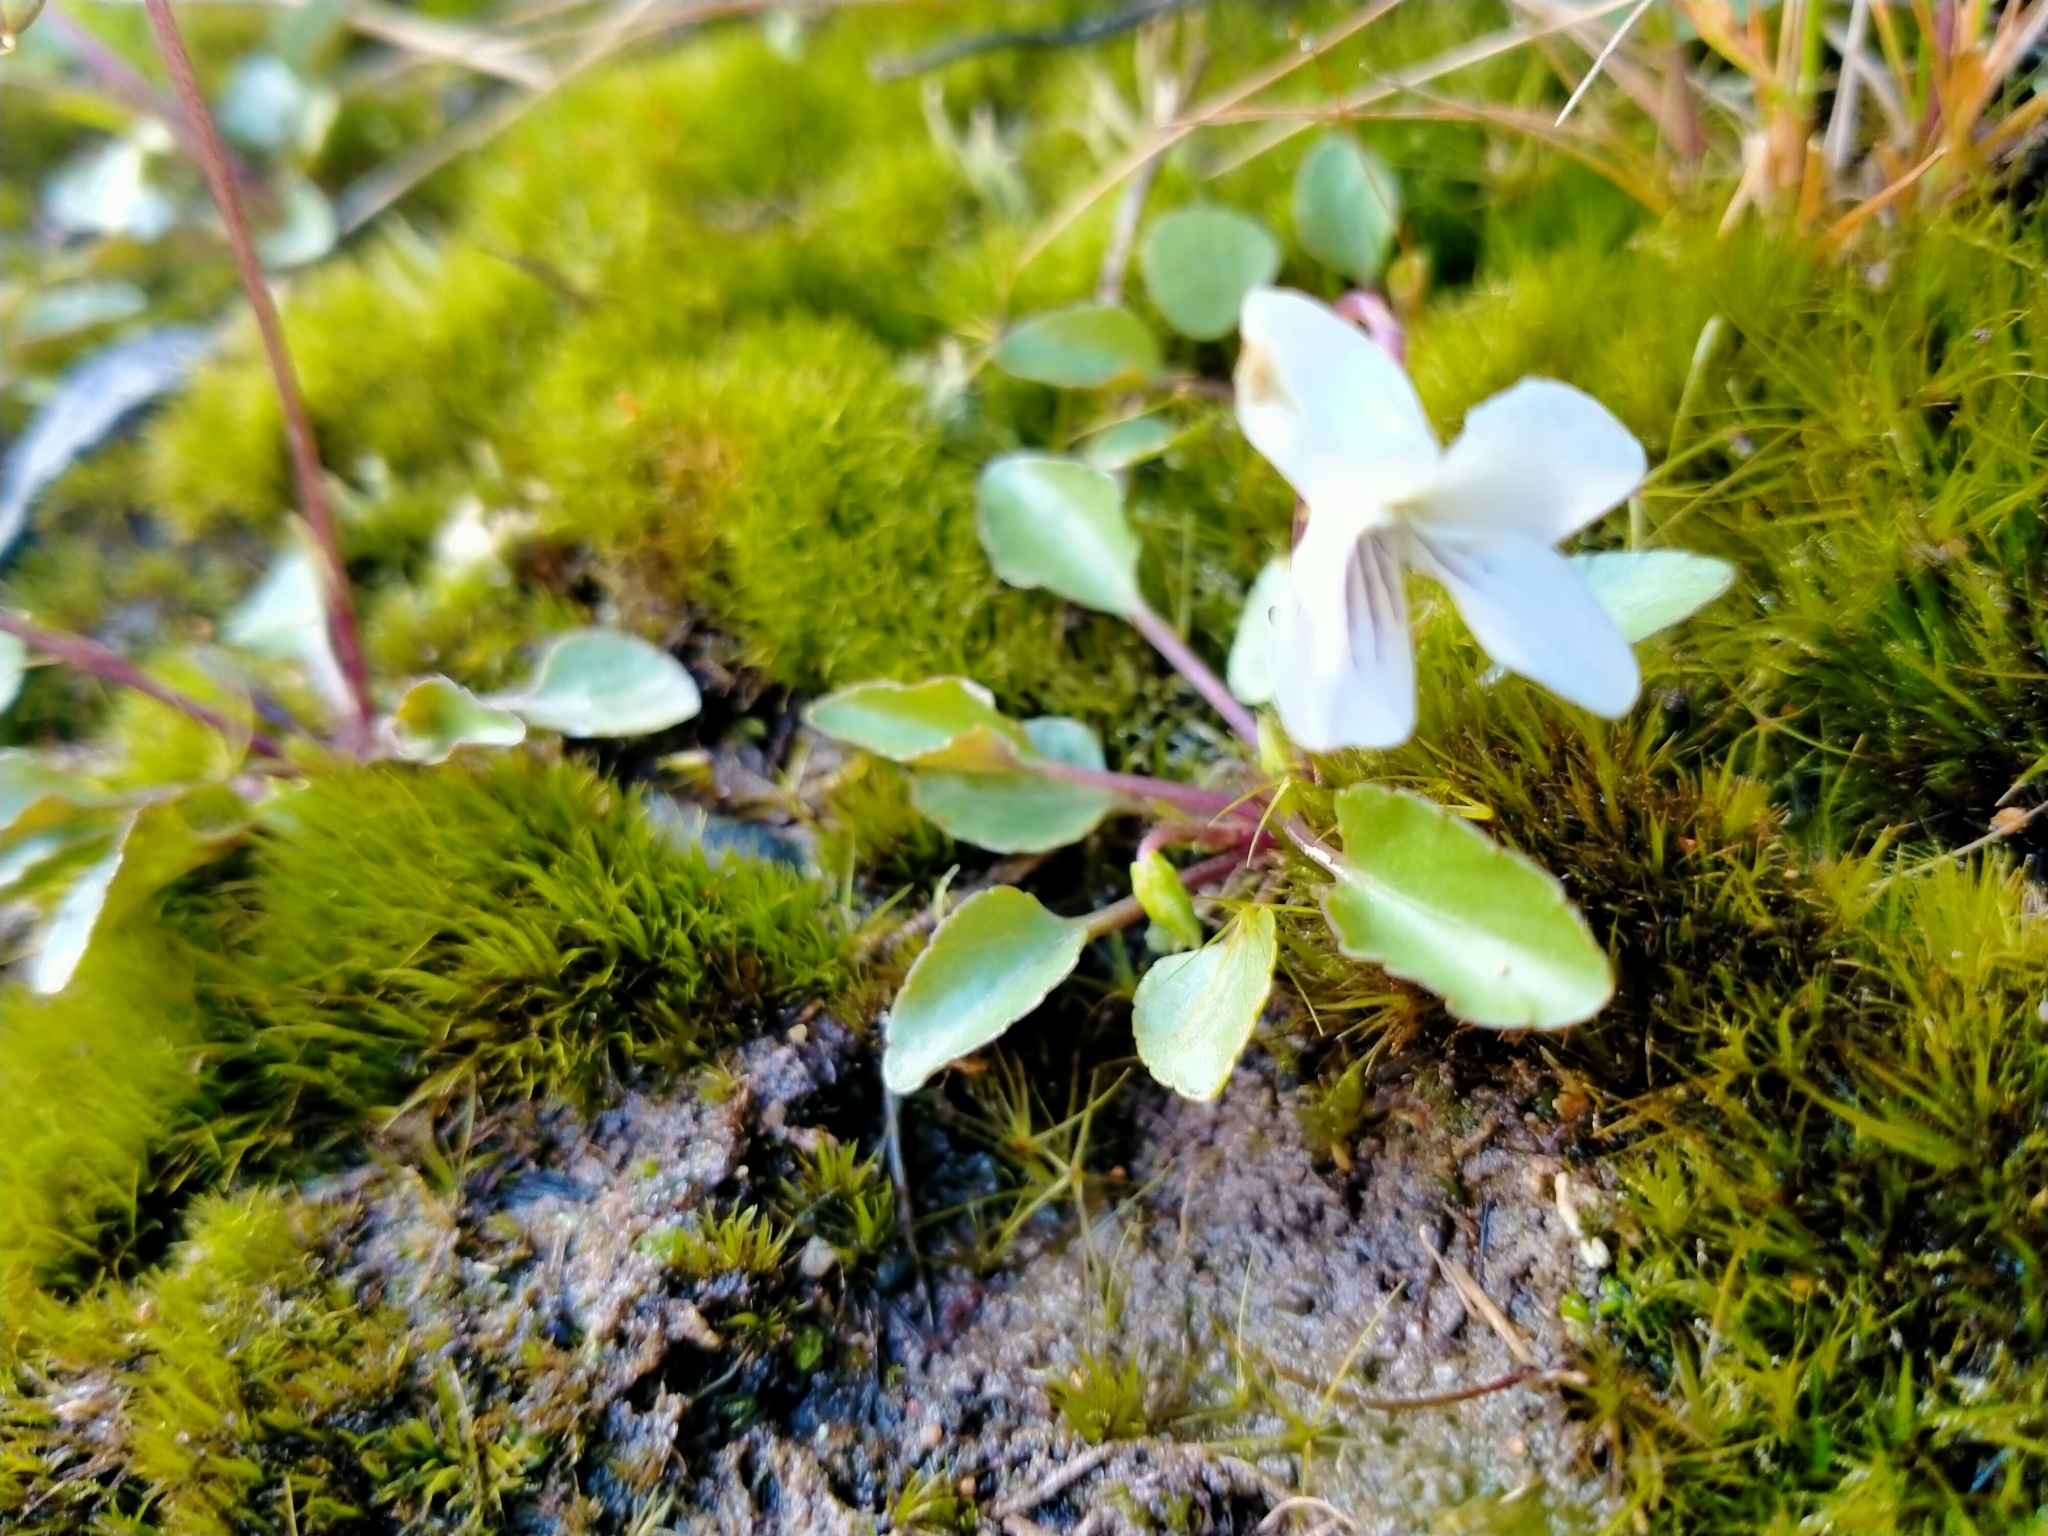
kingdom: Plantae
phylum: Tracheophyta
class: Magnoliopsida
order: Malpighiales
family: Violaceae
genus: Viola
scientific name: Viola cunninghamii
